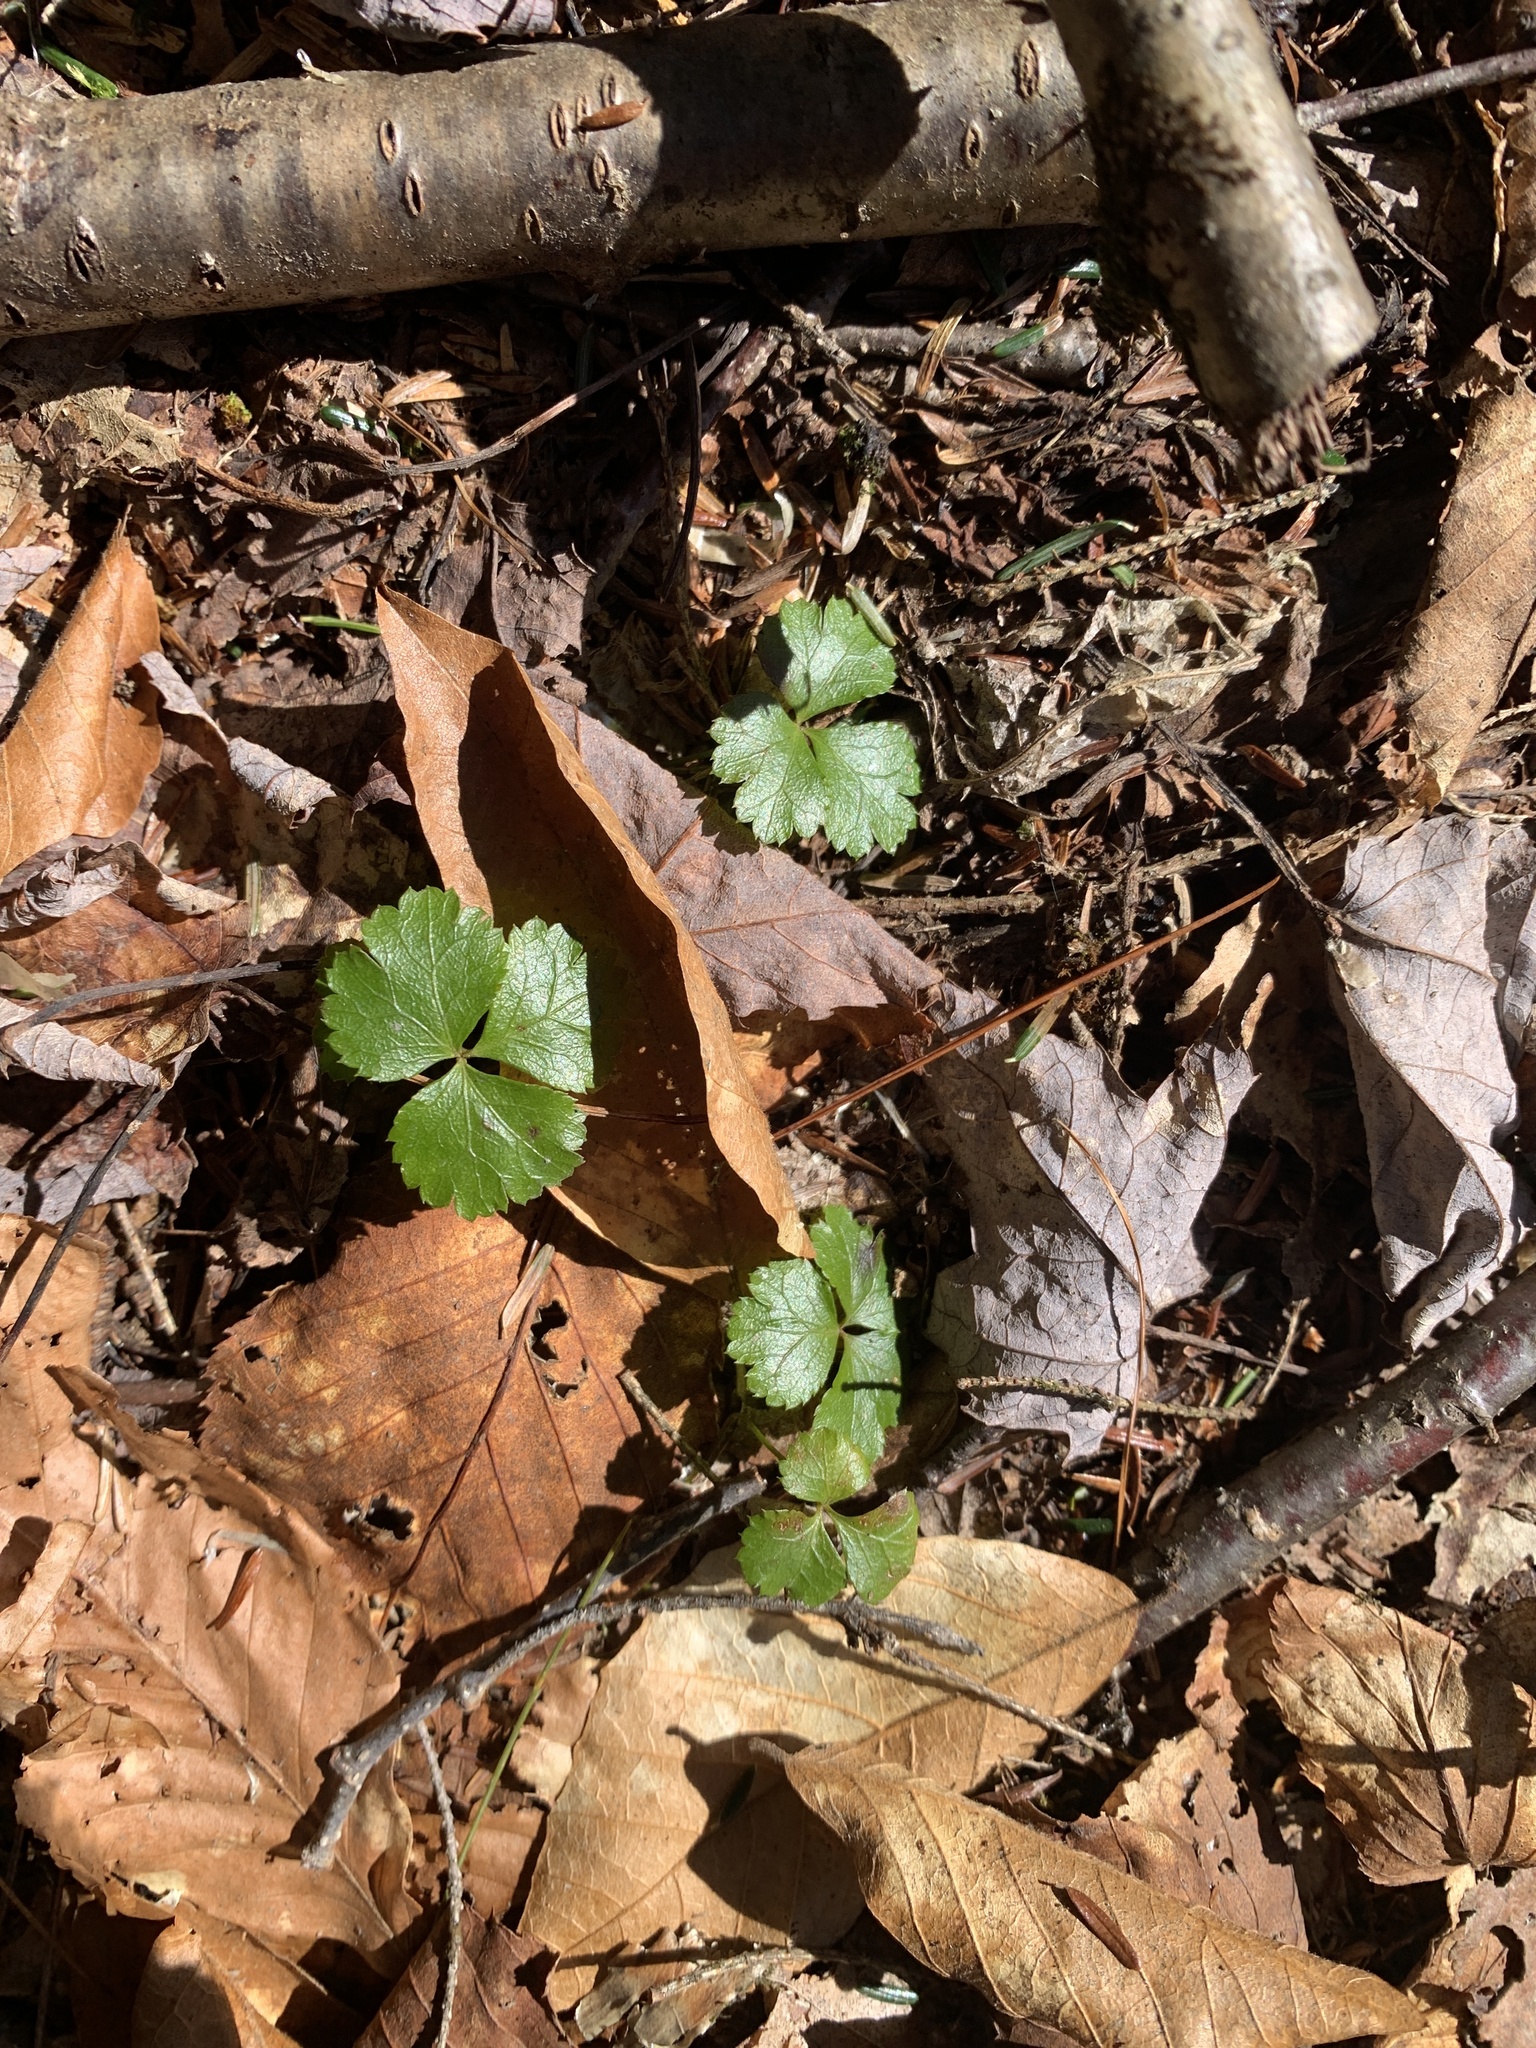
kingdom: Plantae
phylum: Tracheophyta
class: Magnoliopsida
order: Ranunculales
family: Ranunculaceae
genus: Coptis
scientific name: Coptis trifolia
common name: Canker-root
